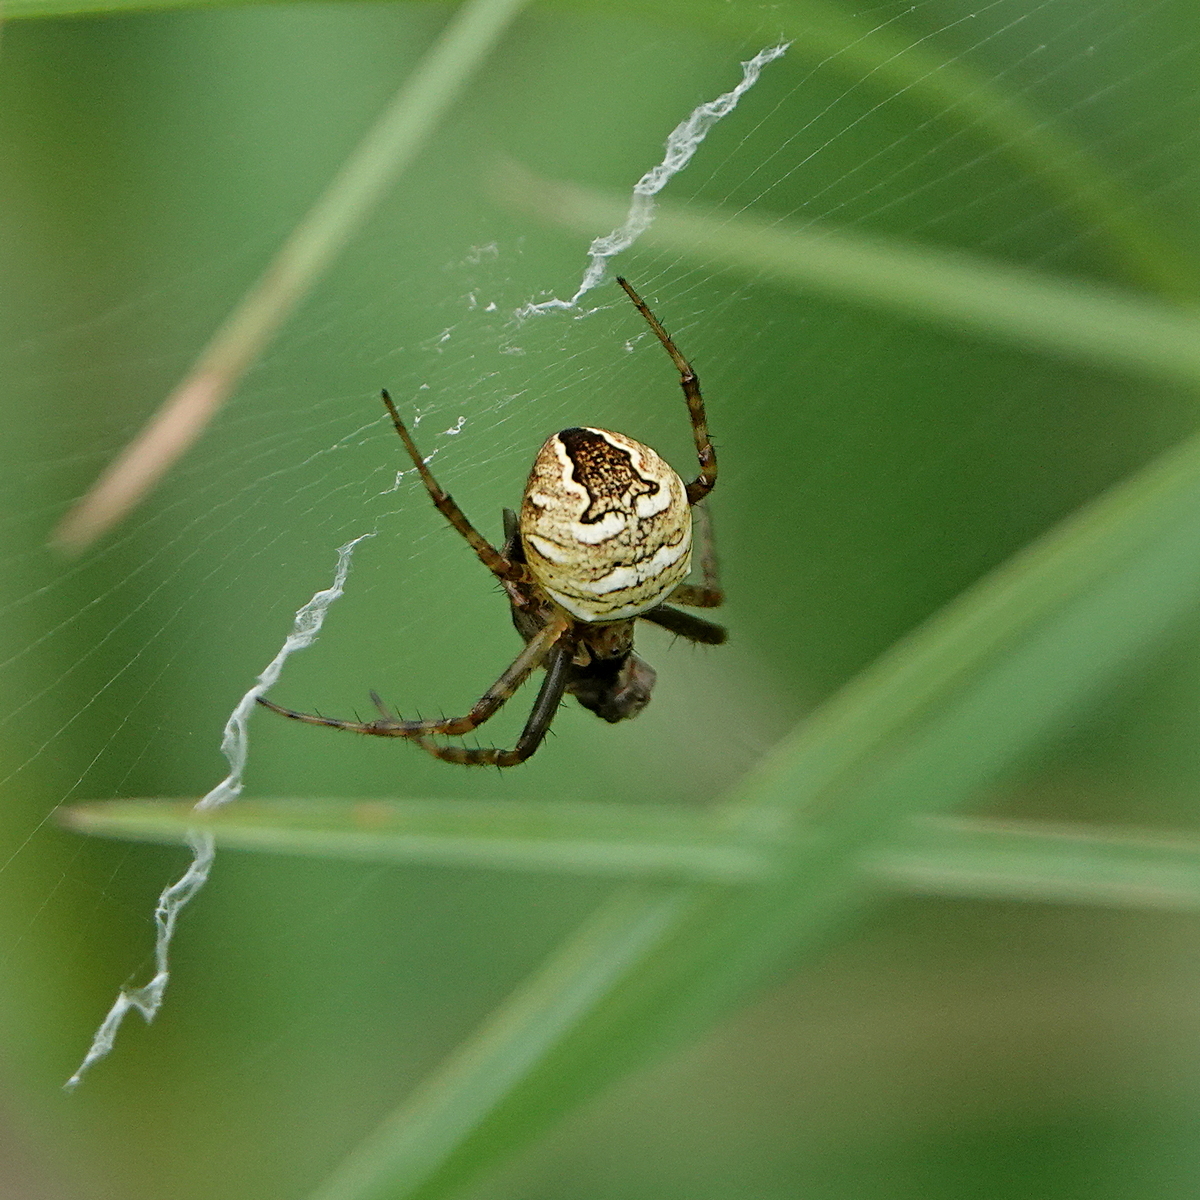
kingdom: Animalia
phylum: Arthropoda
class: Arachnida
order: Araneae
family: Araneidae
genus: Gea
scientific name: Gea theridioides
